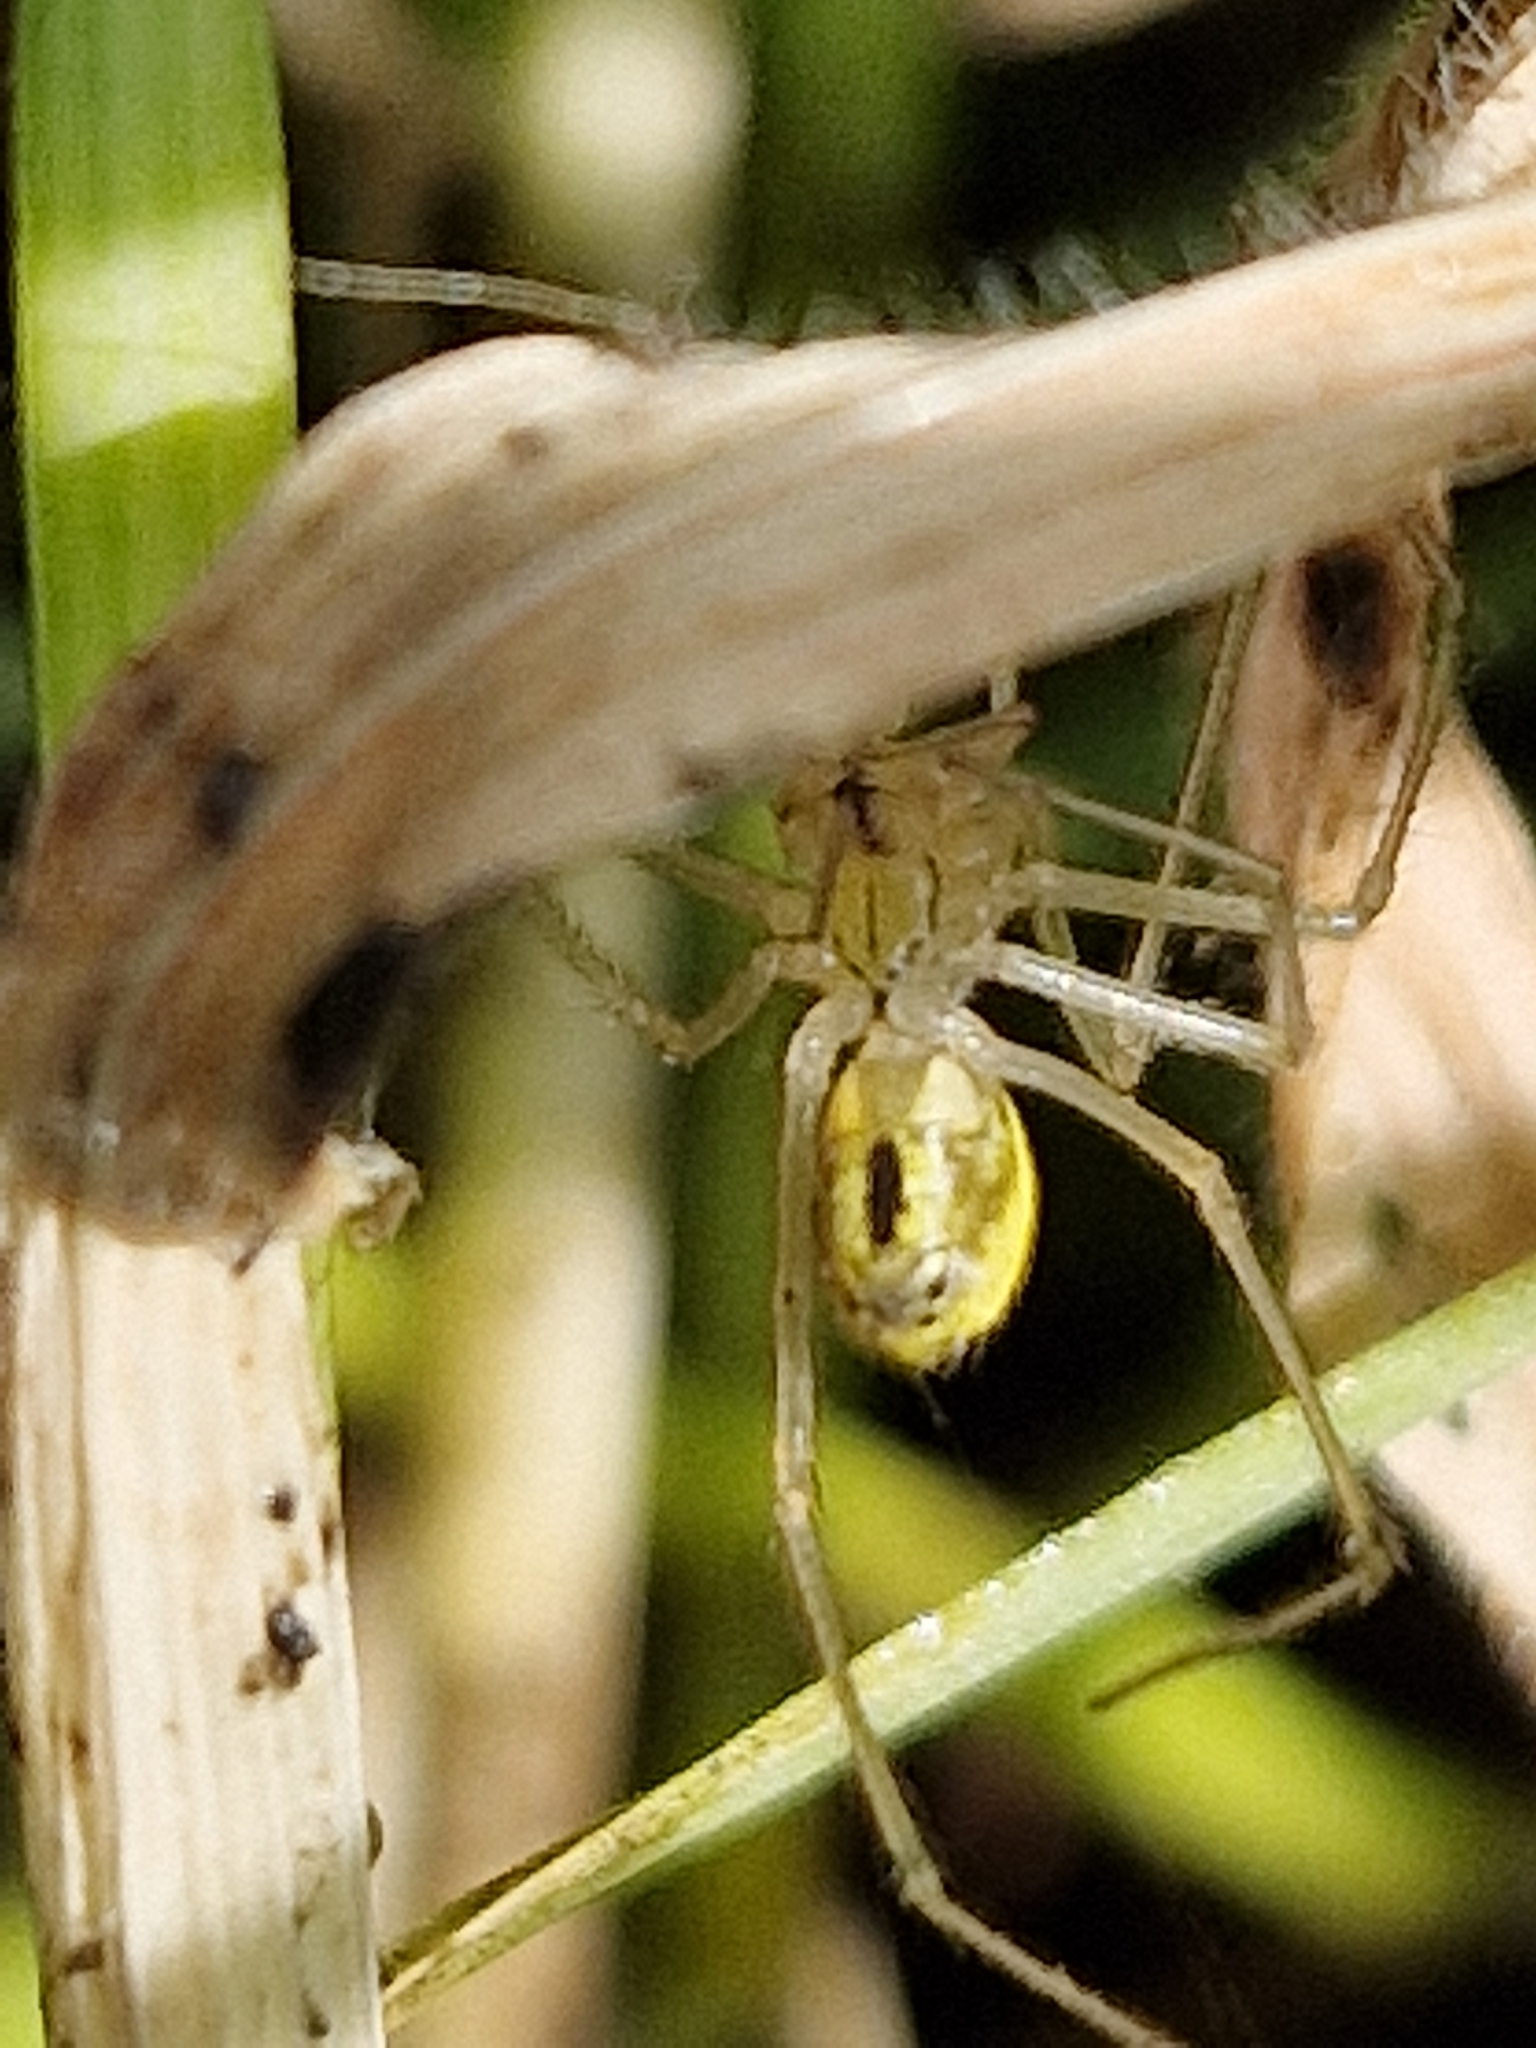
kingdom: Animalia
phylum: Arthropoda
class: Arachnida
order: Araneae
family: Theridiidae
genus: Enoplognatha
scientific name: Enoplognatha
